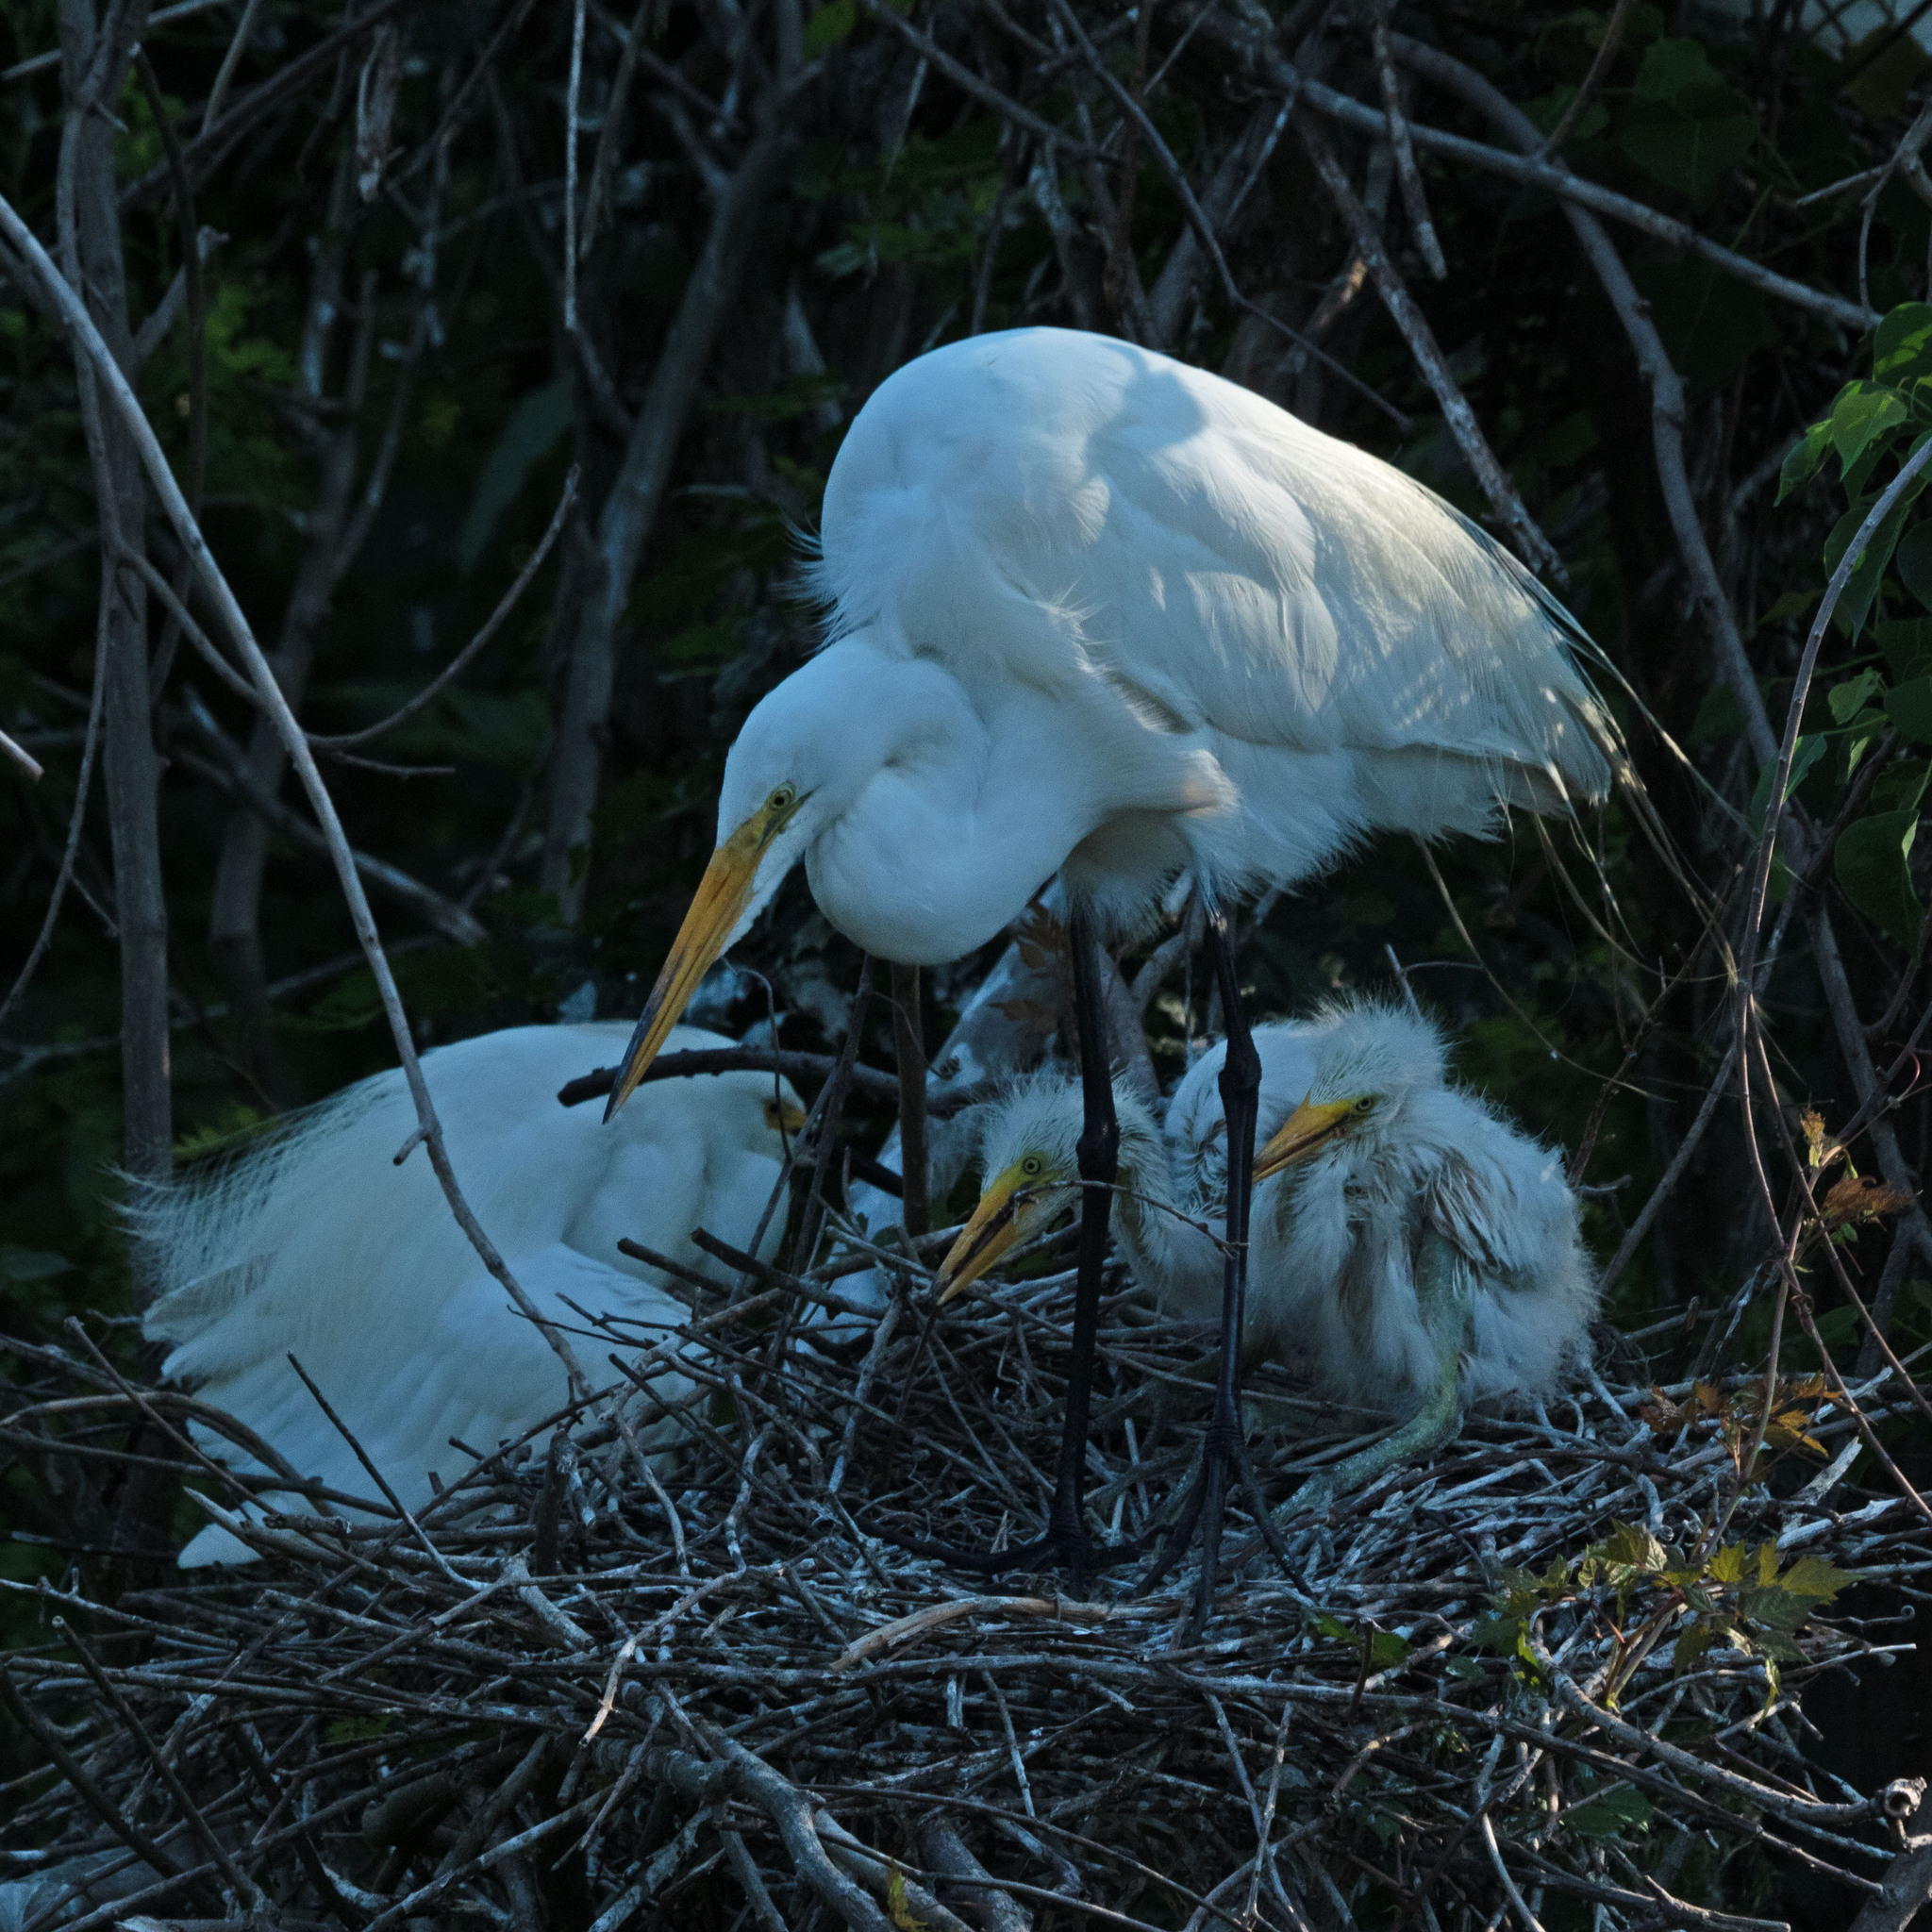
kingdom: Animalia
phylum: Chordata
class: Aves
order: Pelecaniformes
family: Ardeidae
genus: Ardea
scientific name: Ardea alba
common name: Great egret
